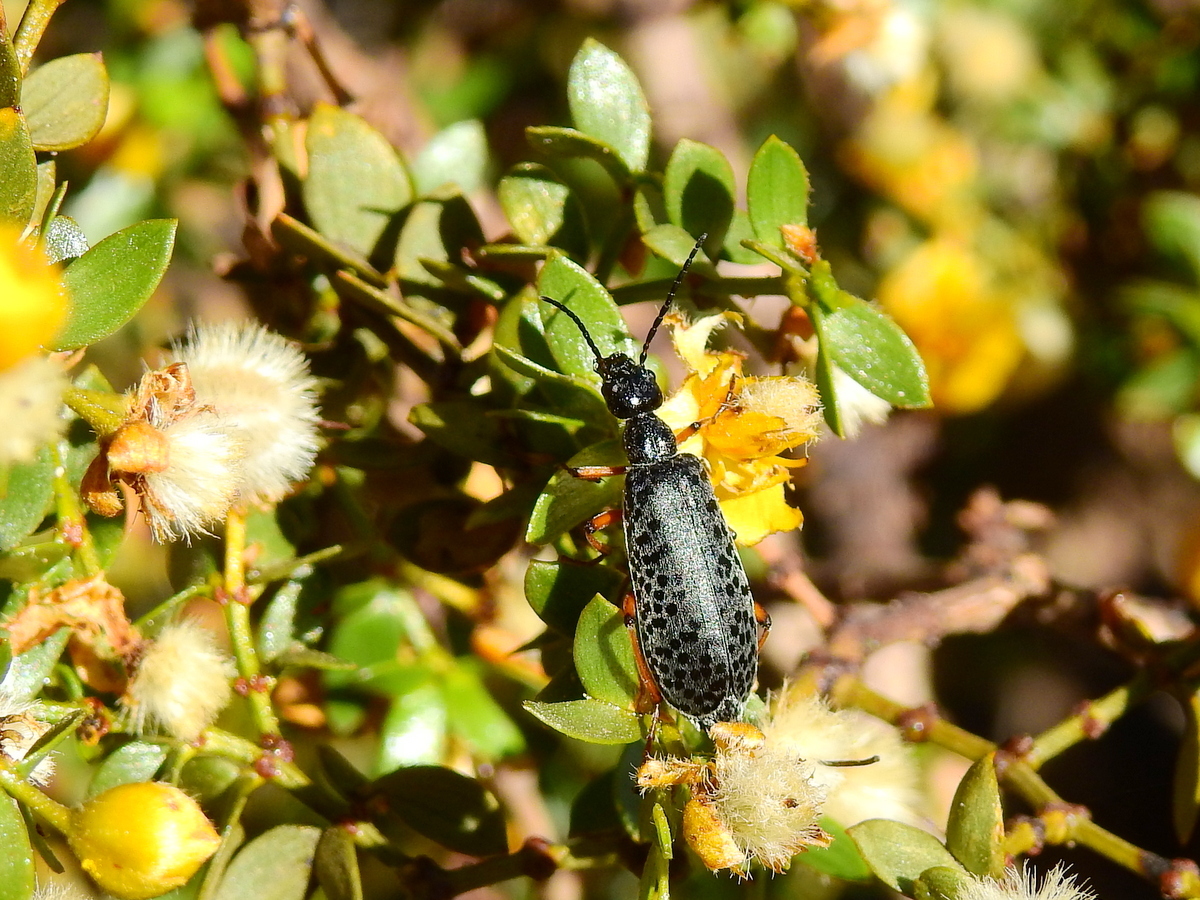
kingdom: Animalia
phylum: Arthropoda
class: Insecta
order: Coleoptera
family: Meloidae
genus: Epicauta
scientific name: Epicauta
